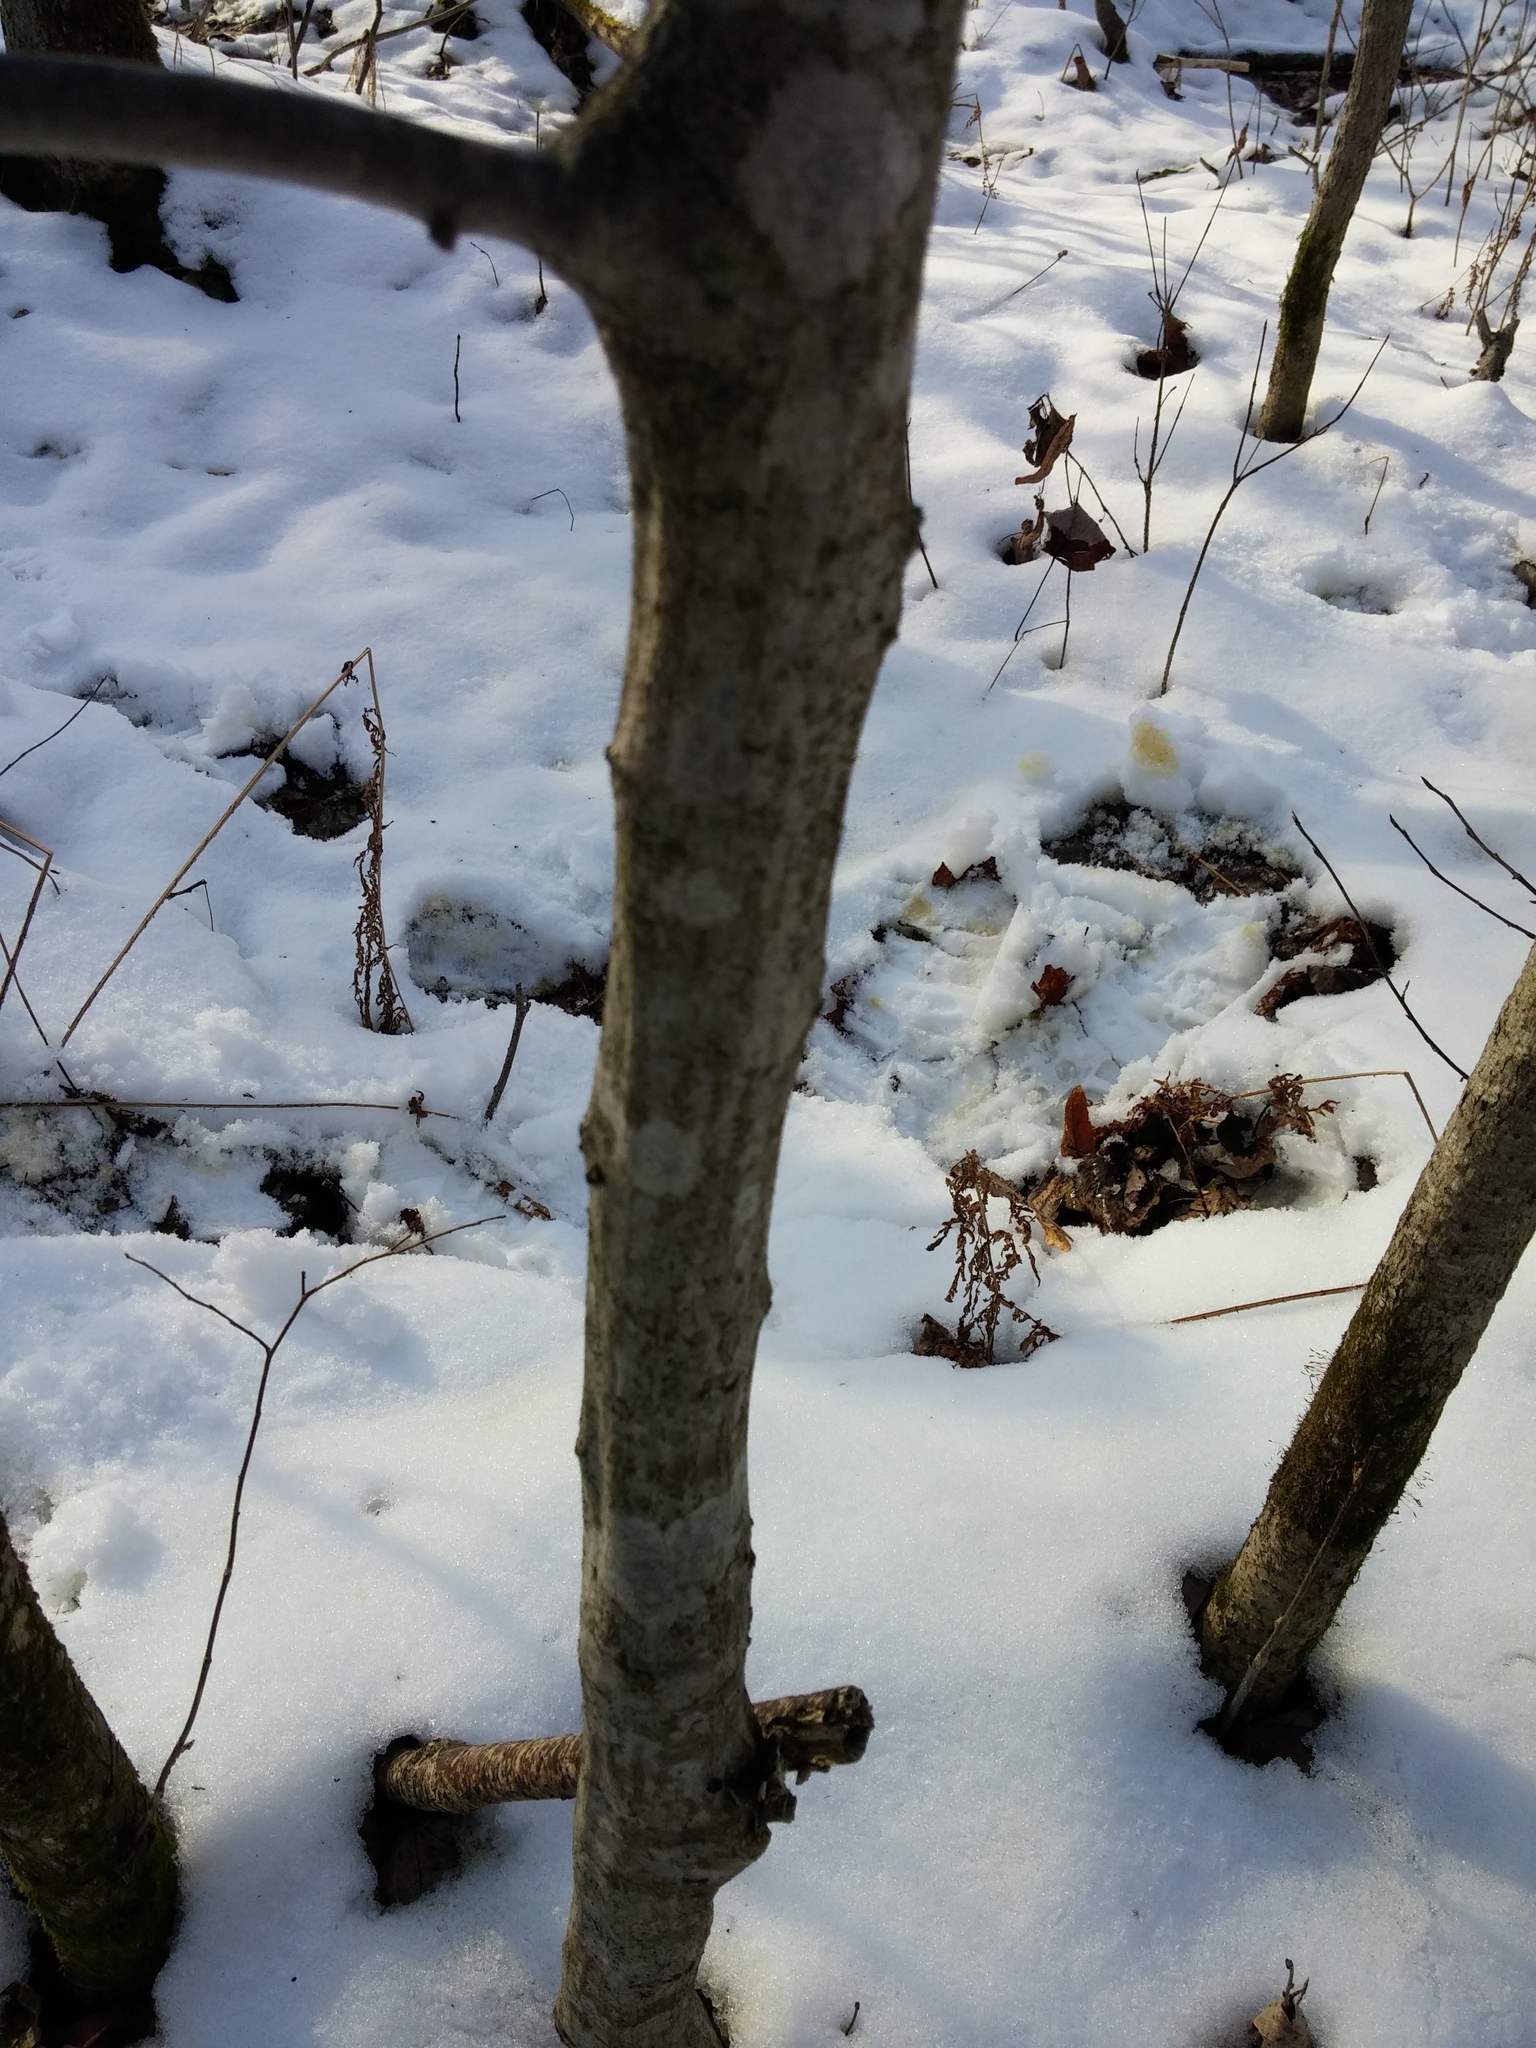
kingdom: Plantae
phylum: Tracheophyta
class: Magnoliopsida
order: Fagales
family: Betulaceae
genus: Carpinus
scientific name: Carpinus caroliniana
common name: American hornbeam
